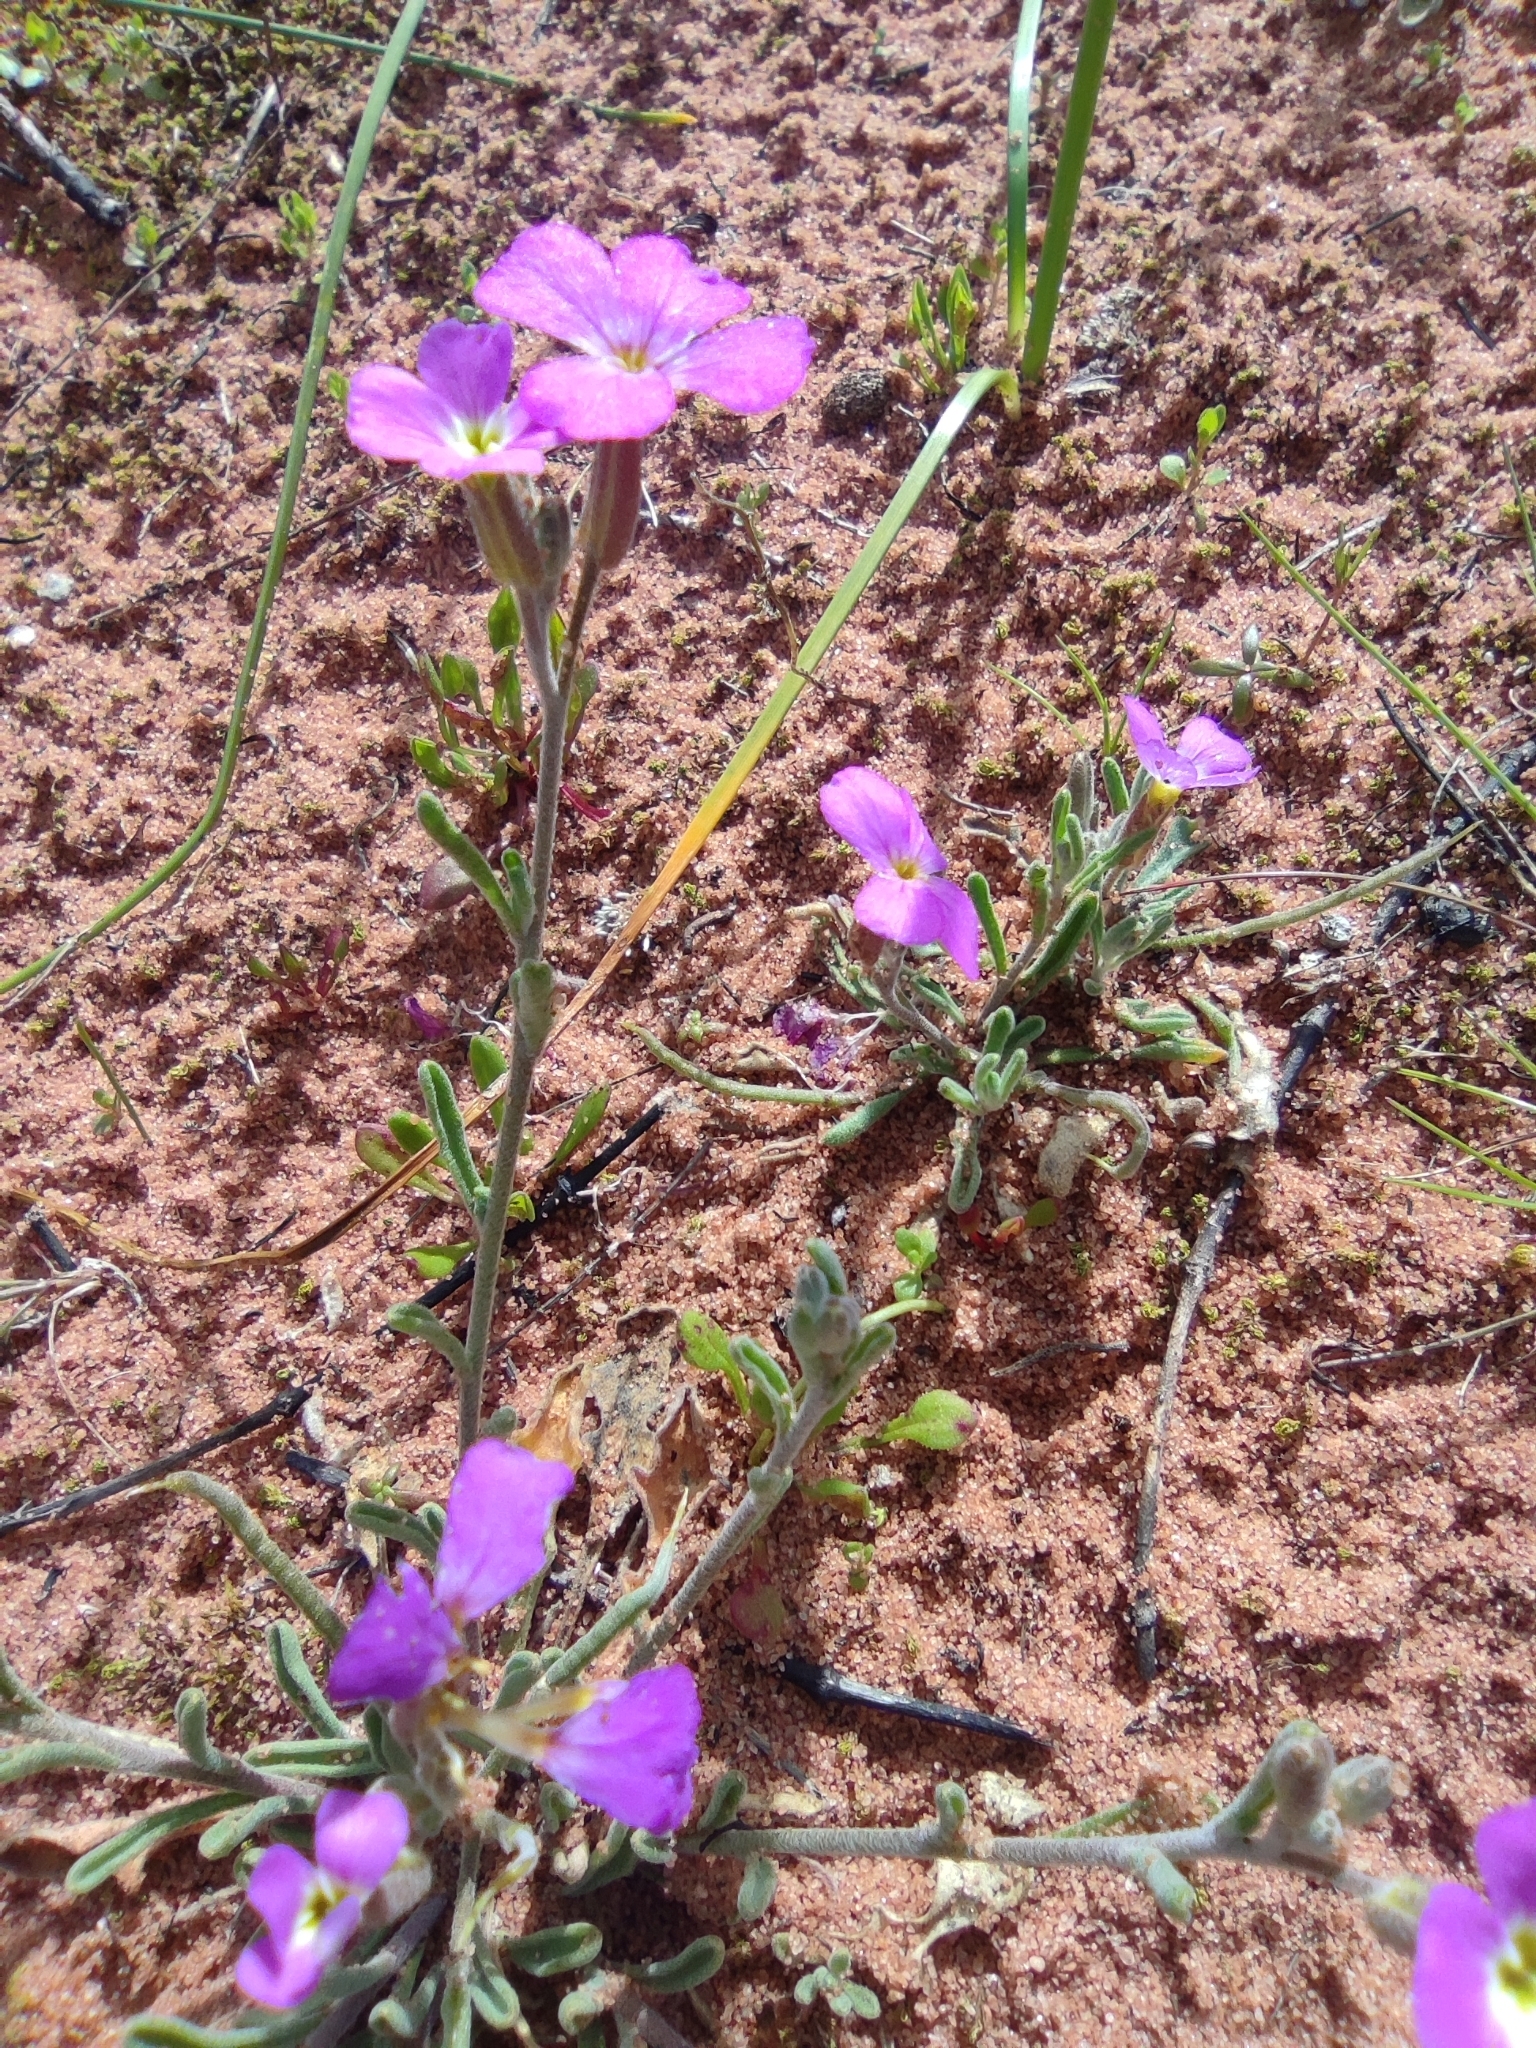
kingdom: Plantae
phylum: Tracheophyta
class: Magnoliopsida
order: Brassicales
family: Brassicaceae
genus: Marcuskochia
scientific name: Marcuskochia triloba
